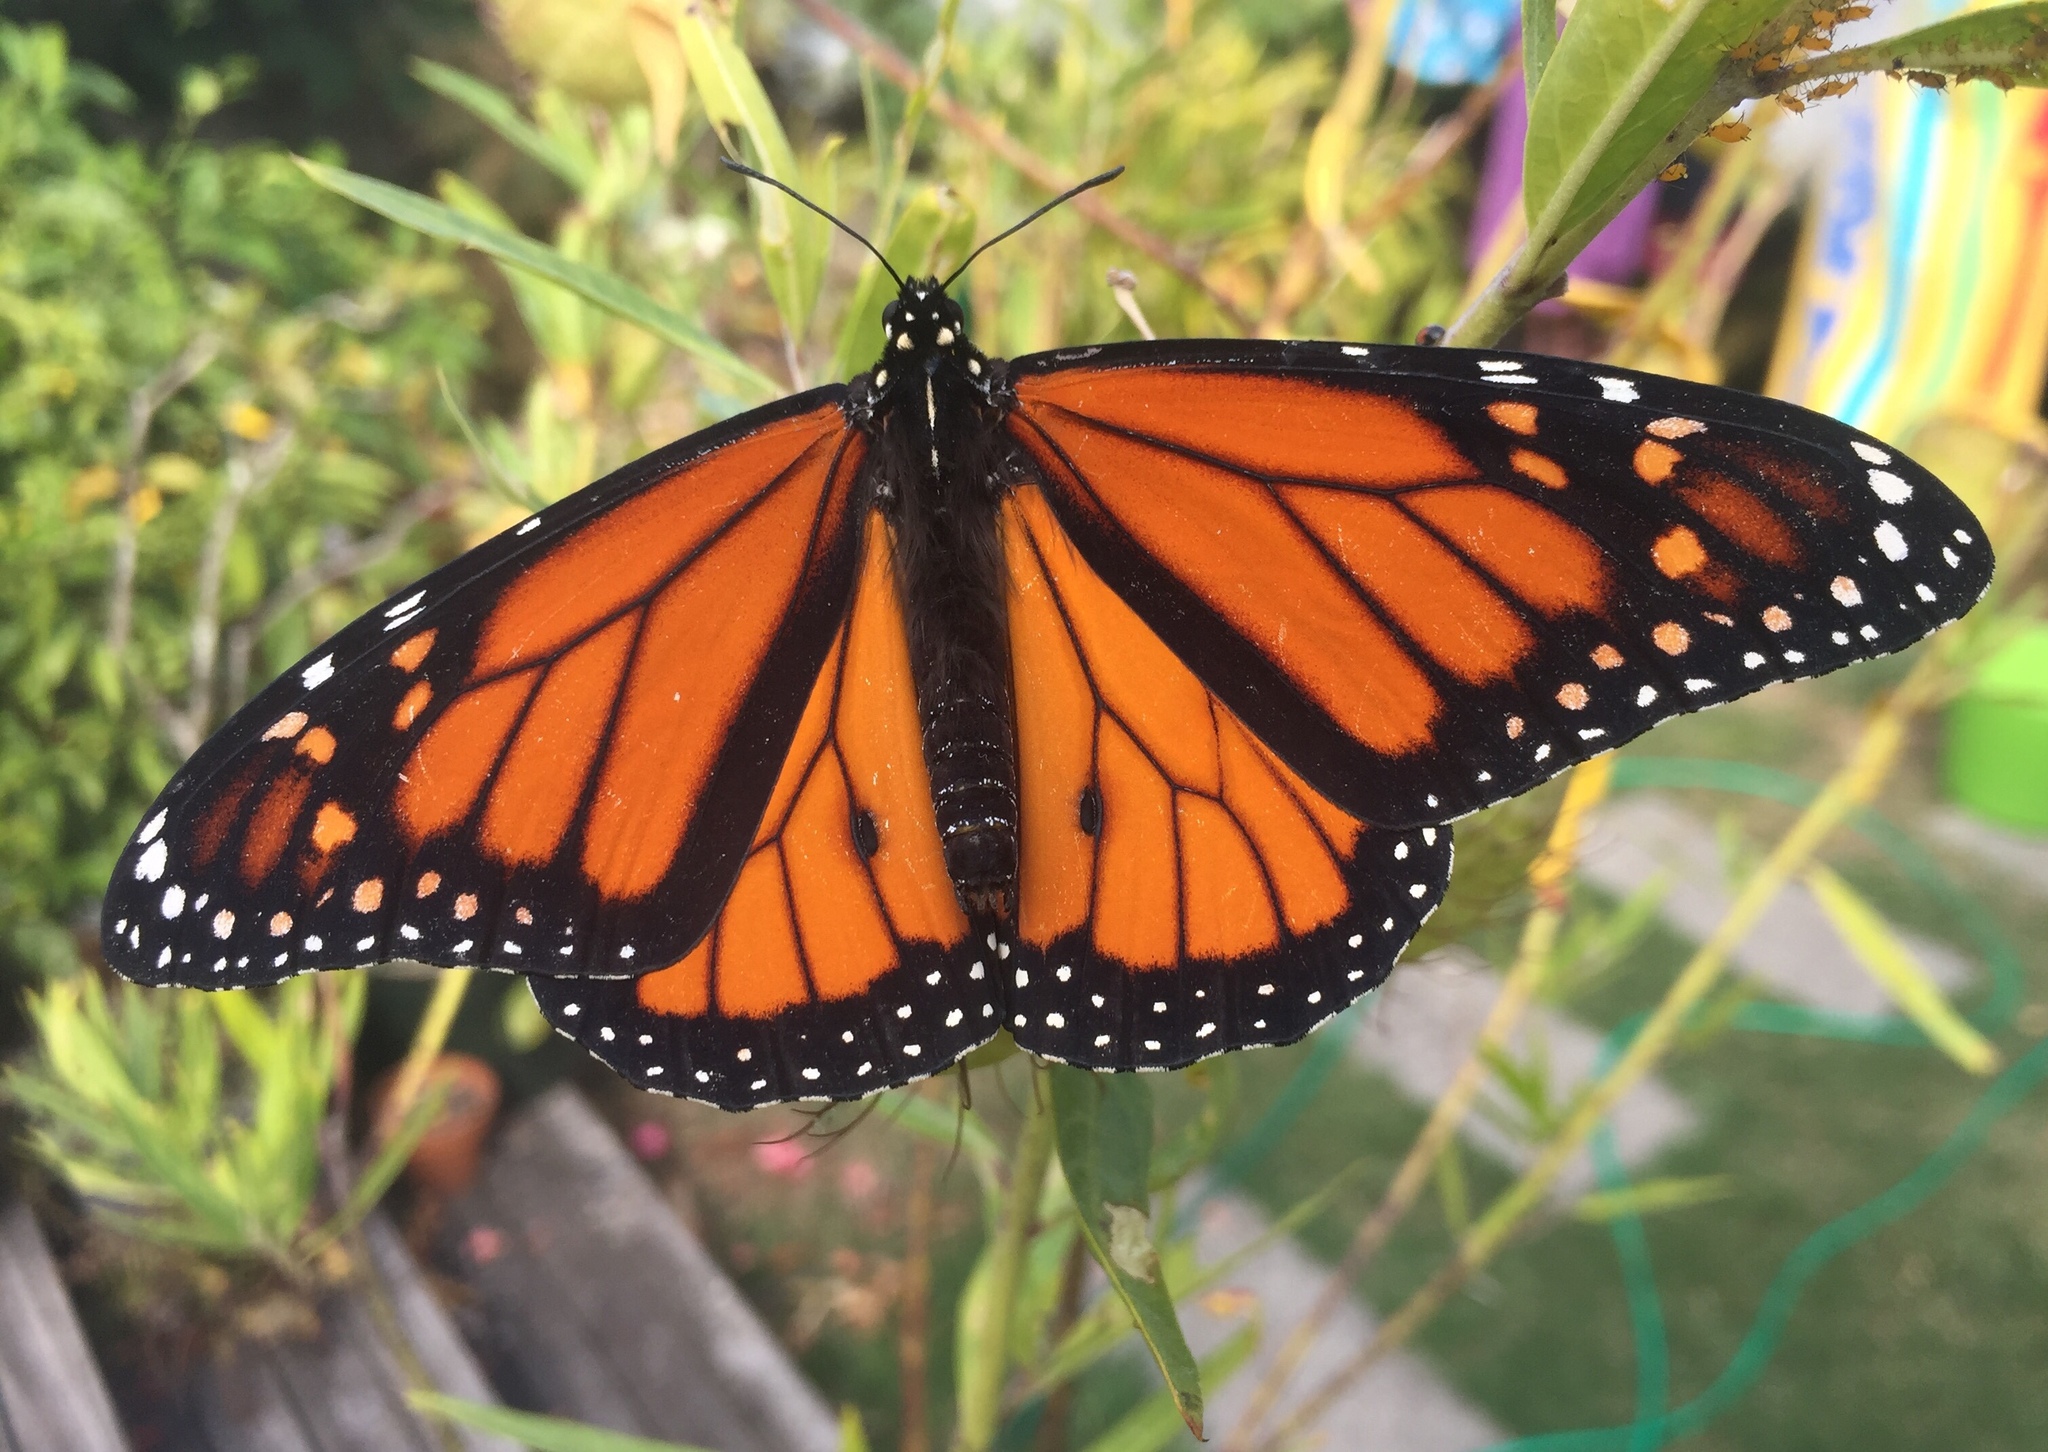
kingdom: Animalia
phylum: Arthropoda
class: Insecta
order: Lepidoptera
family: Nymphalidae
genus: Danaus
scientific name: Danaus plexippus
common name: Monarch
